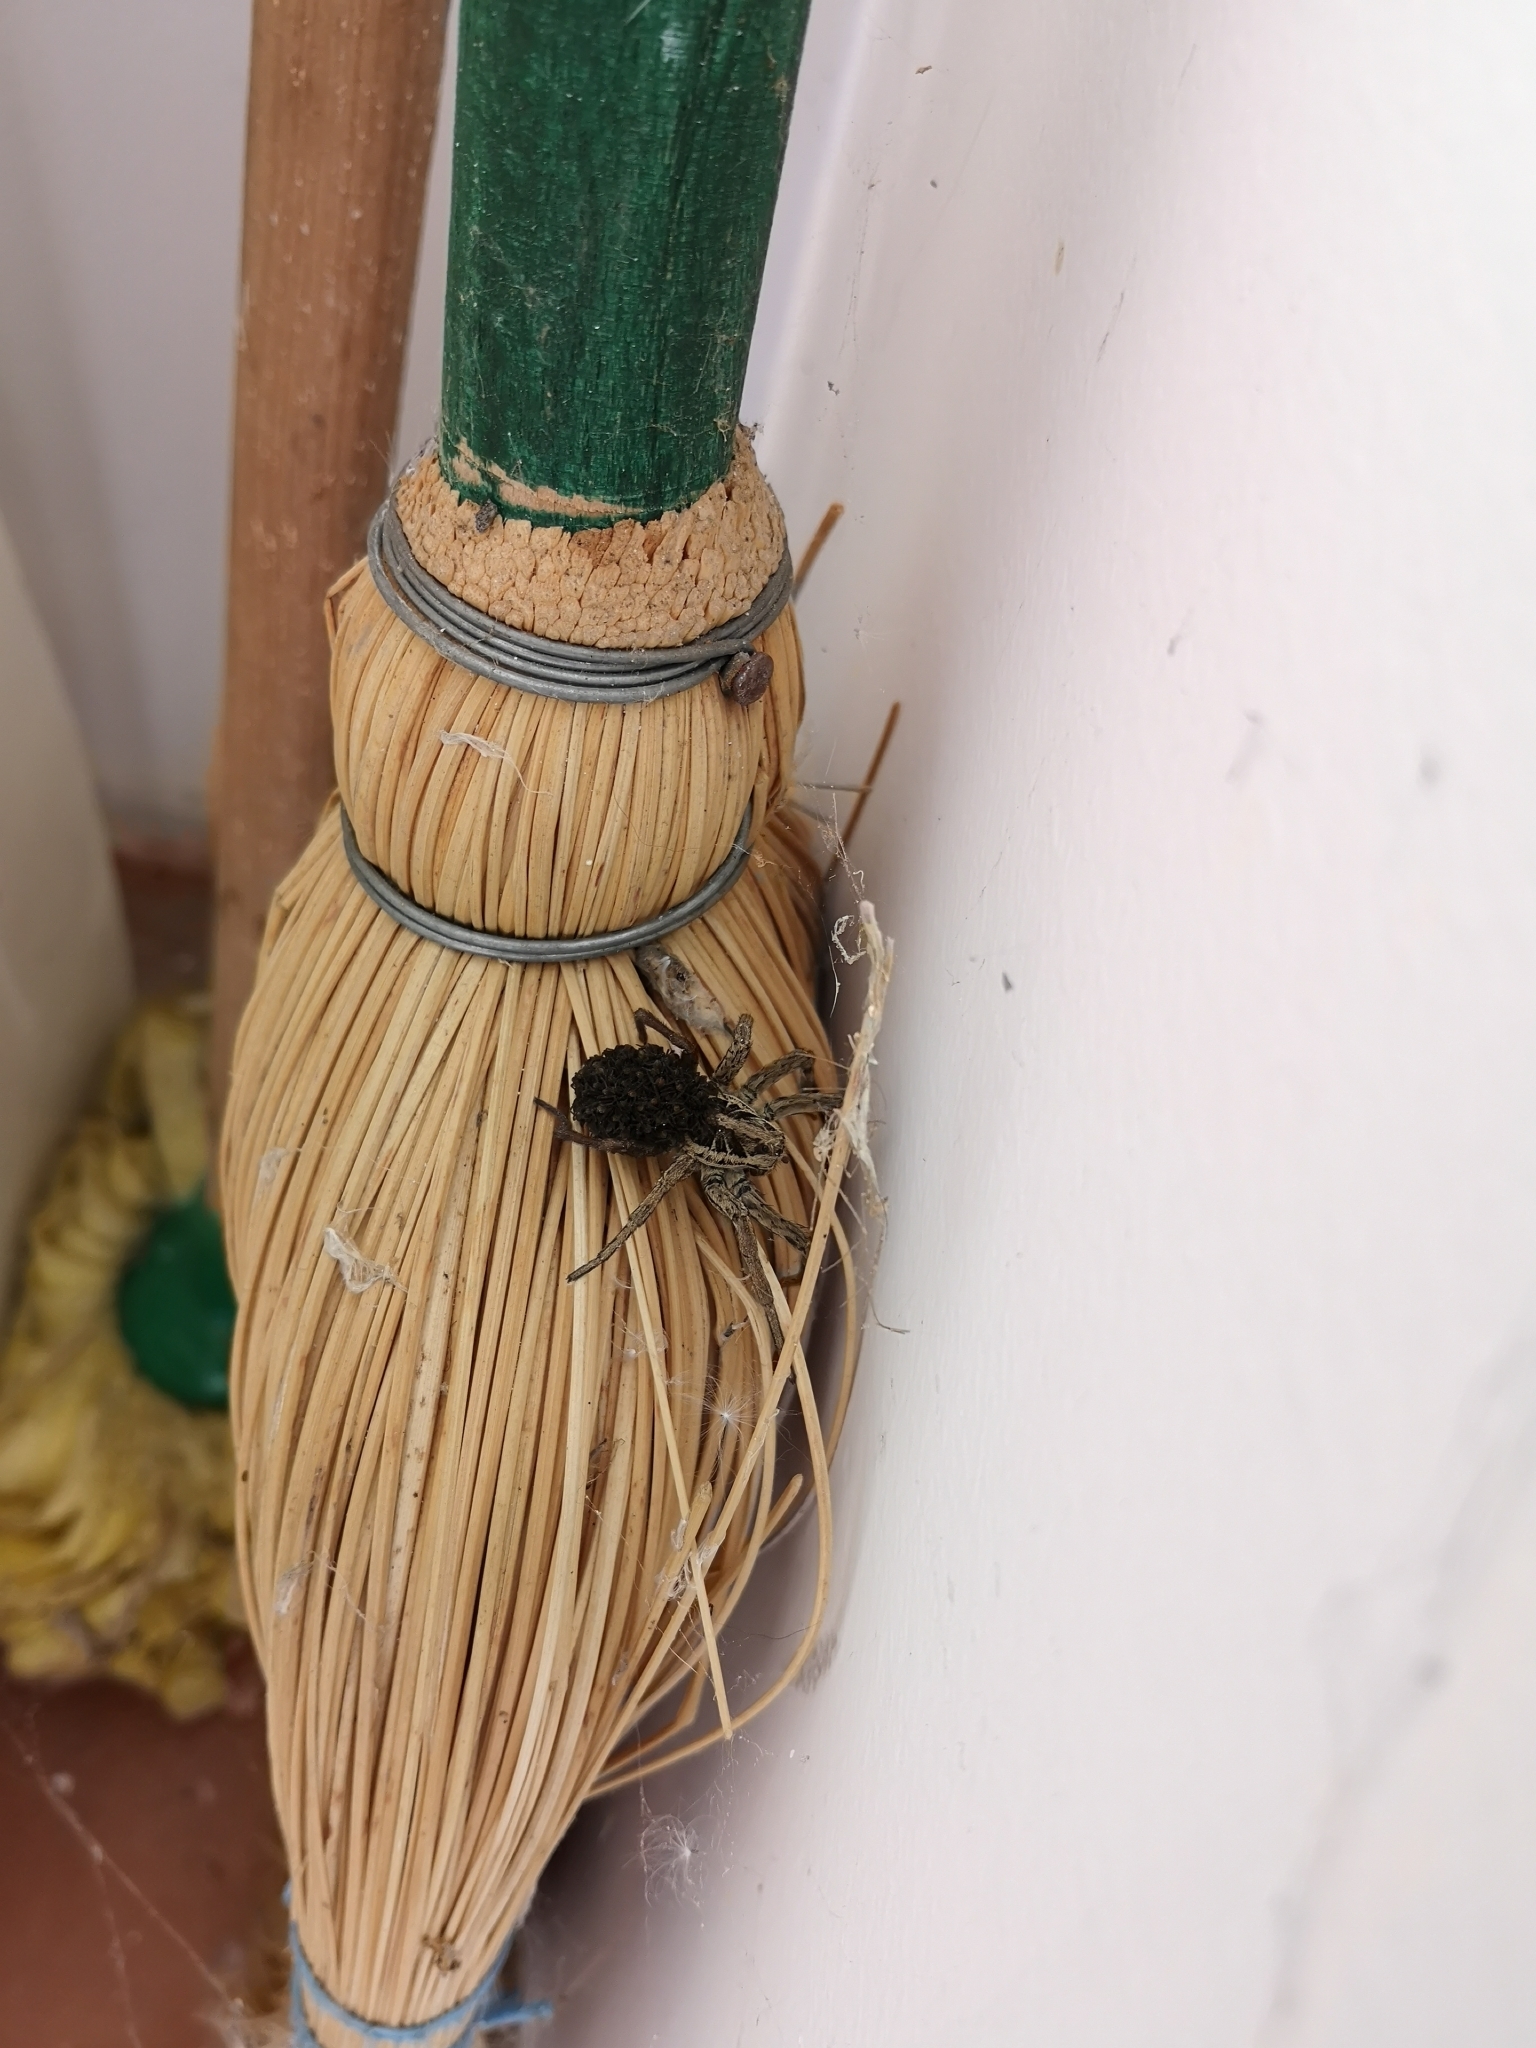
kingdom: Animalia
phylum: Arthropoda
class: Arachnida
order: Araneae
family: Lycosidae
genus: Hogna
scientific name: Hogna radiata
